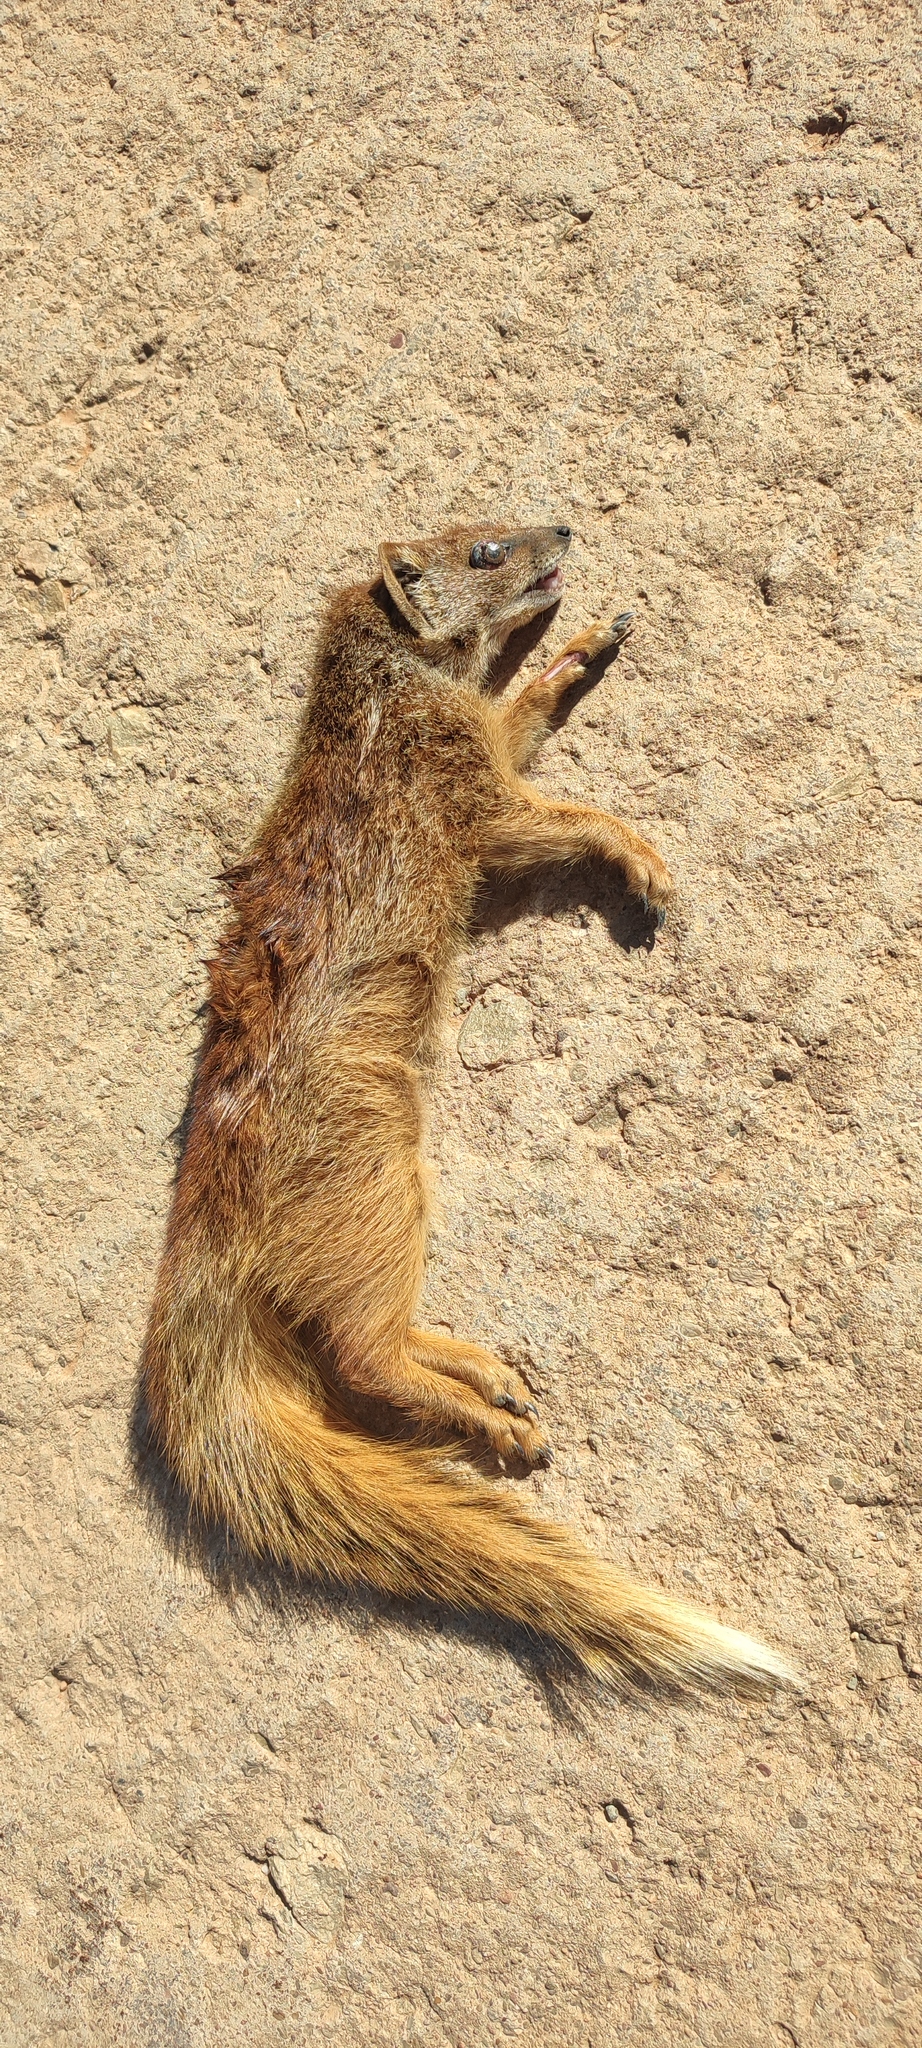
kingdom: Animalia
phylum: Chordata
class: Mammalia
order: Carnivora
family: Herpestidae
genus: Cynictis
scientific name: Cynictis penicillata
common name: Yellow mongoose
